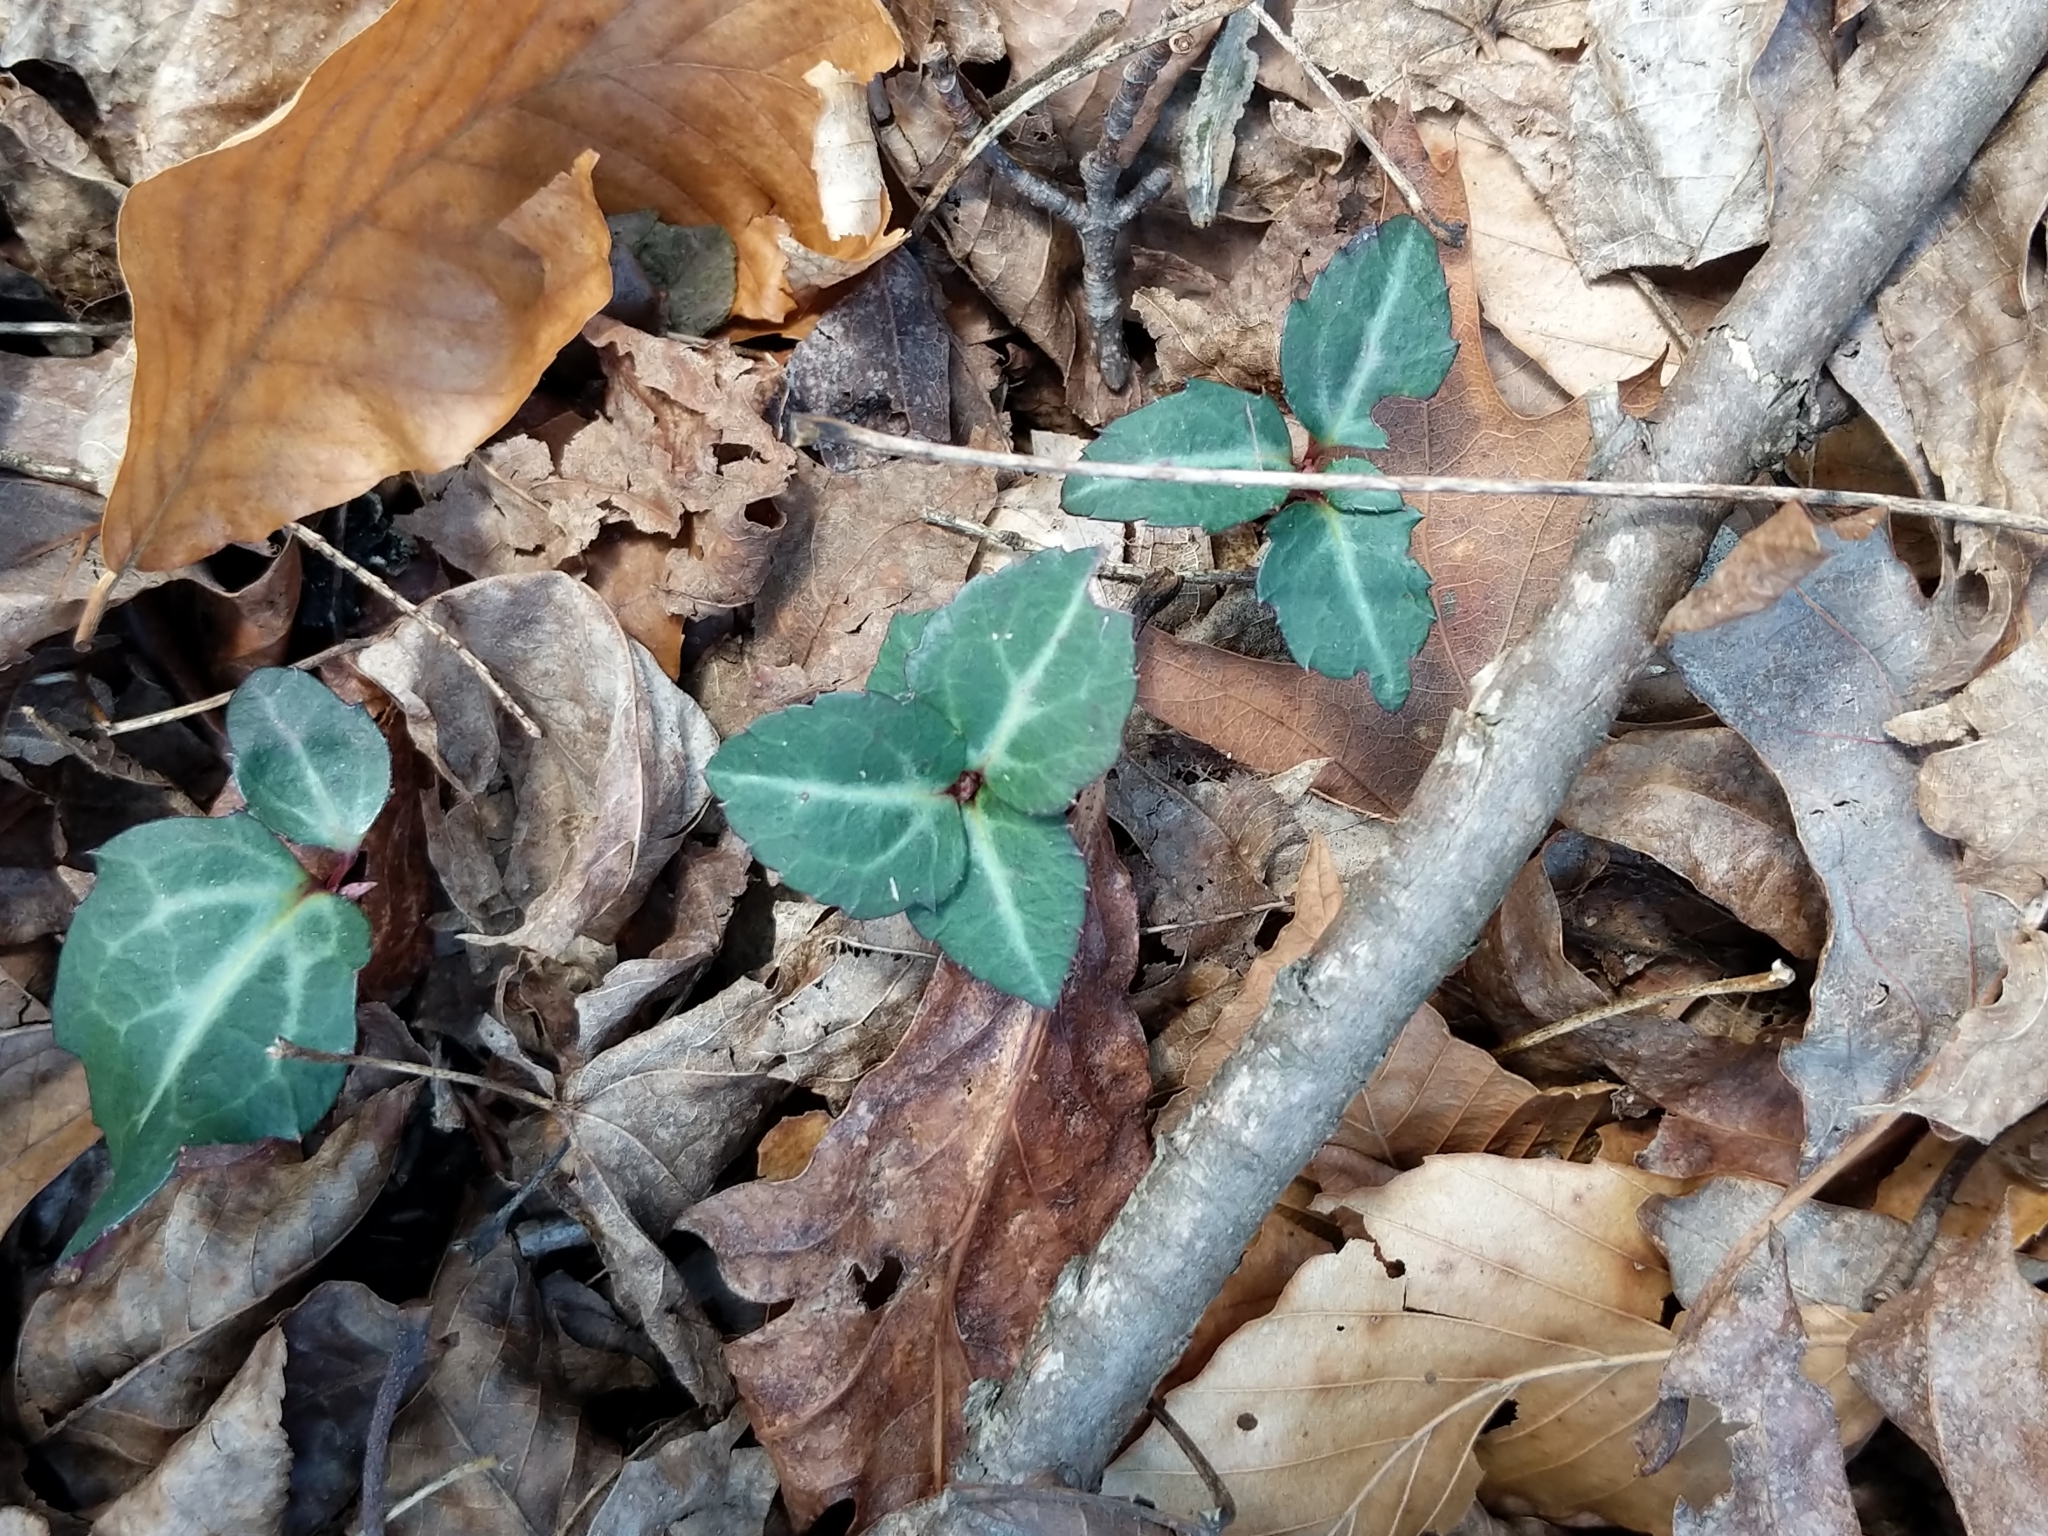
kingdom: Plantae
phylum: Tracheophyta
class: Magnoliopsida
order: Ericales
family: Ericaceae
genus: Chimaphila
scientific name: Chimaphila maculata
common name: Spotted pipsissewa
